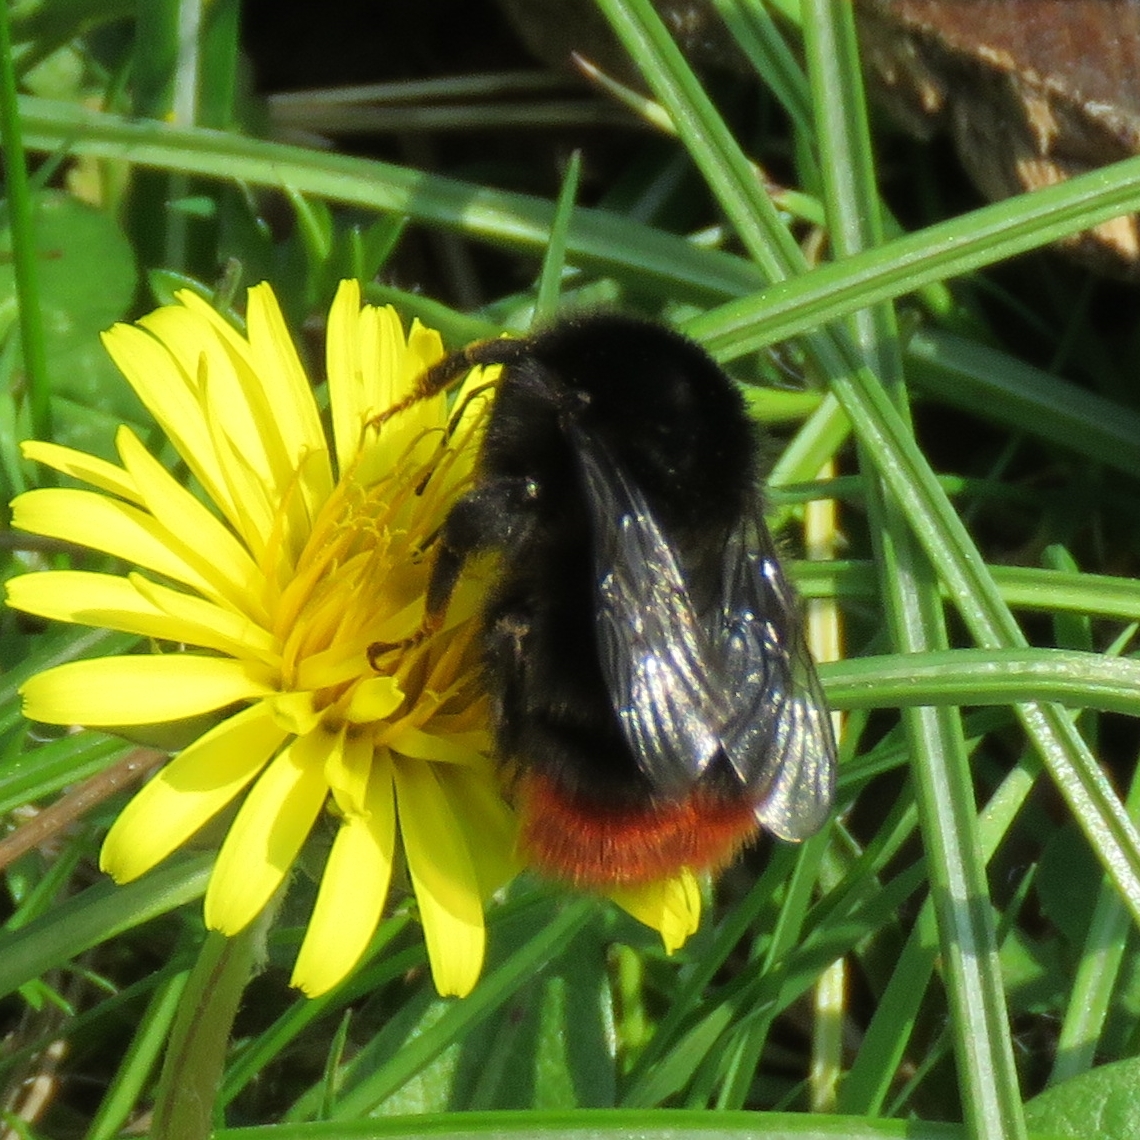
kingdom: Animalia
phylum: Arthropoda
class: Insecta
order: Hymenoptera
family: Apidae
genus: Bombus
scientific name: Bombus lapidarius
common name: Large red-tailed humble-bee
